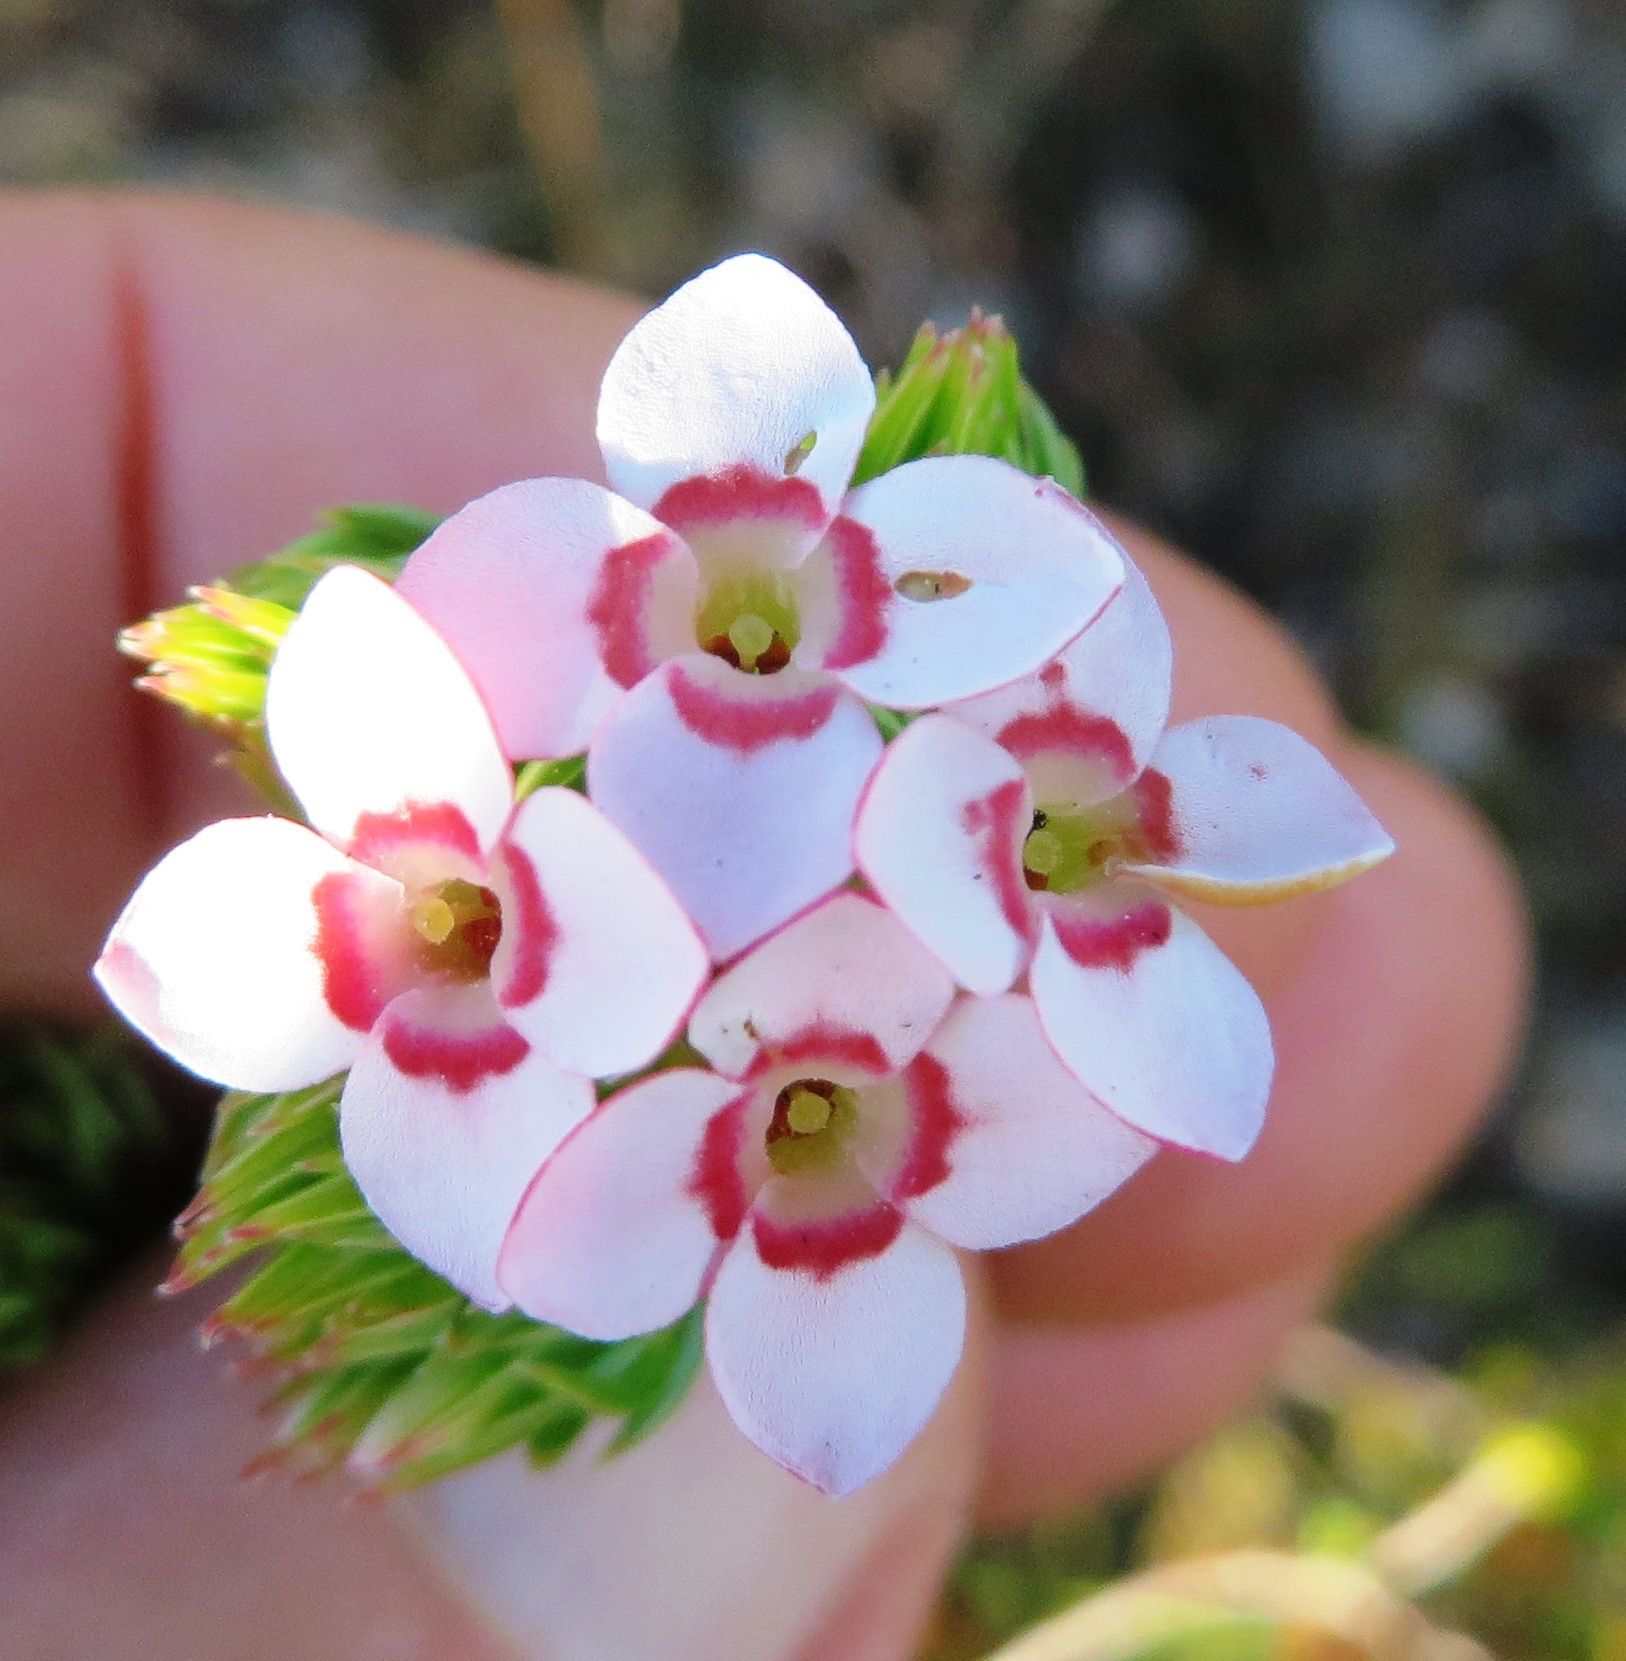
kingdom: Plantae
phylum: Tracheophyta
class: Magnoliopsida
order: Ericales
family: Ericaceae
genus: Erica
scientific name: Erica fastigiata
